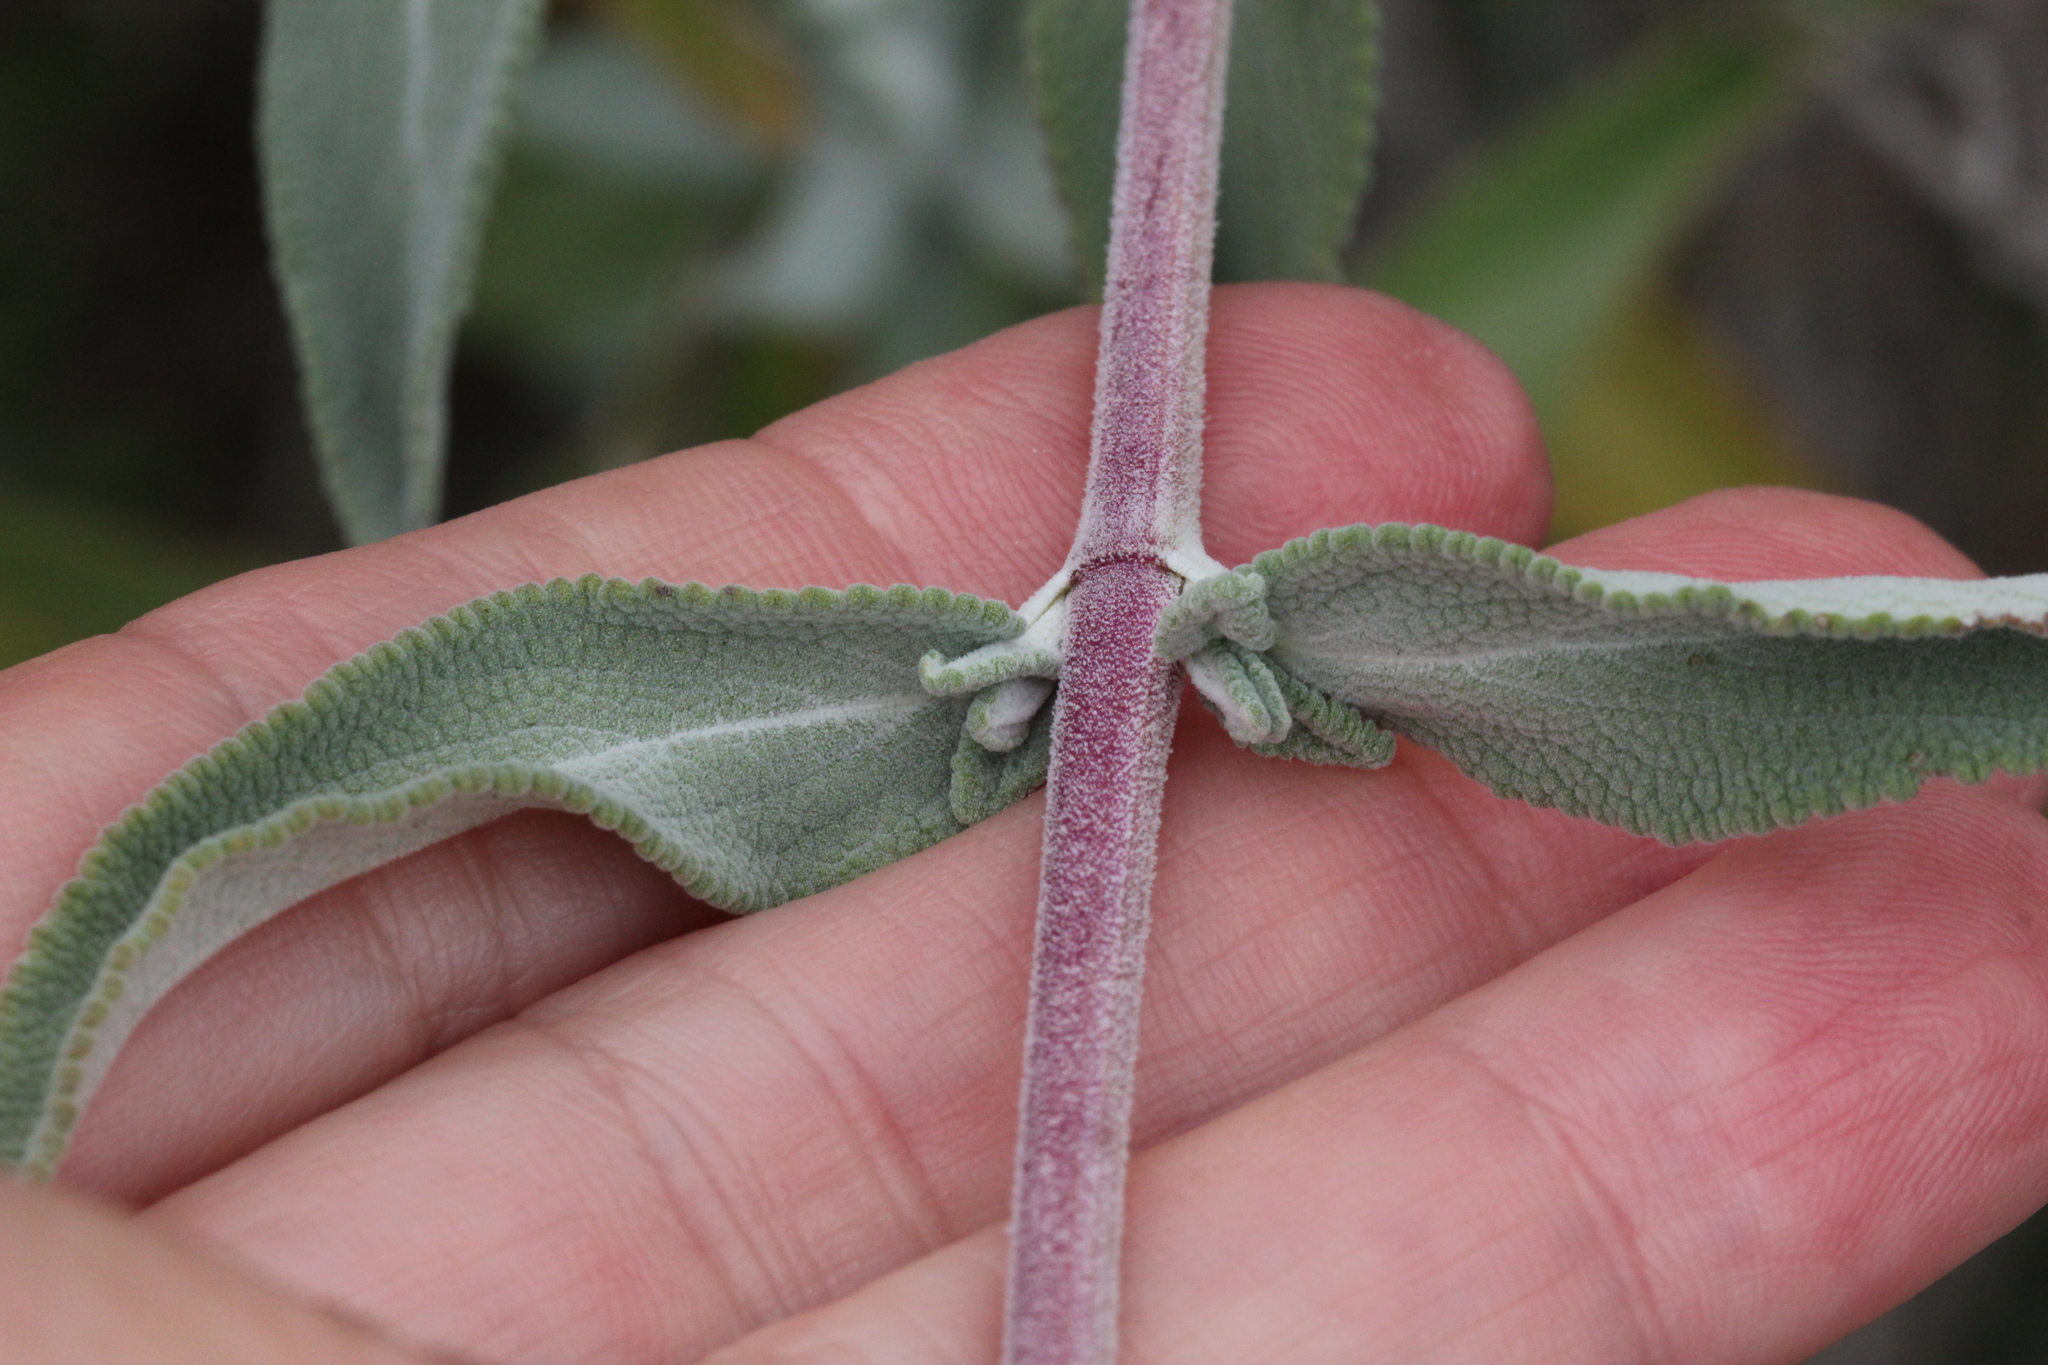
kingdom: Plantae
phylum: Tracheophyta
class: Magnoliopsida
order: Lamiales
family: Lamiaceae
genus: Salvia
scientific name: Salvia leucophylla
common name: Purple sage
